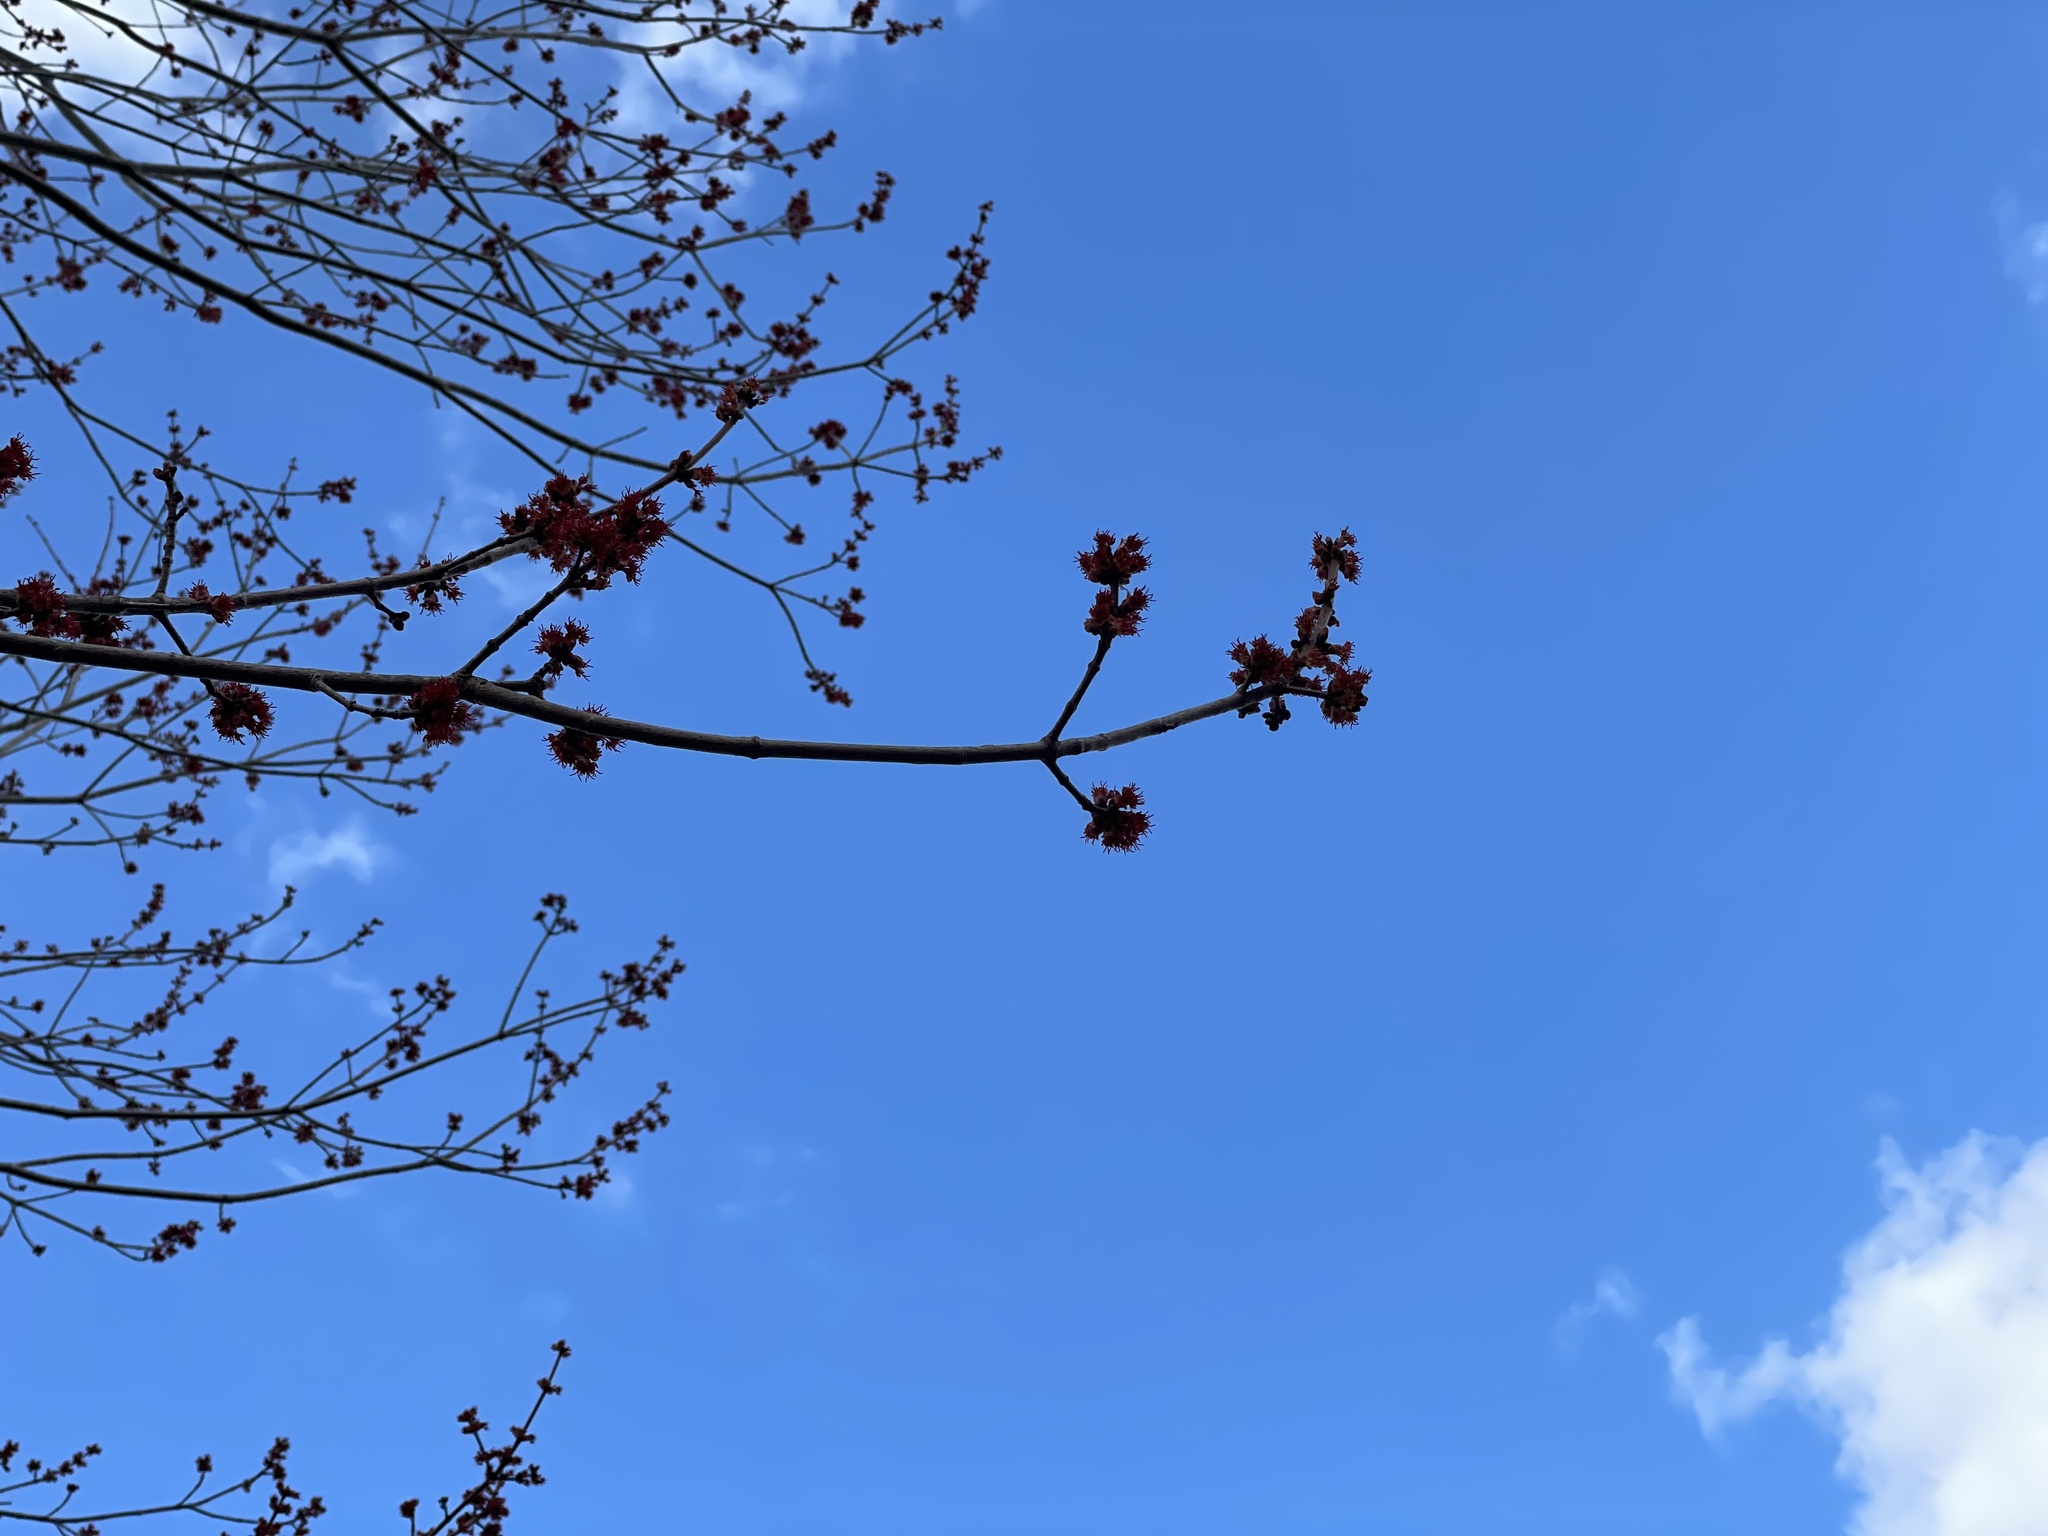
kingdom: Plantae
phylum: Tracheophyta
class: Magnoliopsida
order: Sapindales
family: Sapindaceae
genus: Acer
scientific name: Acer rubrum
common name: Red maple
